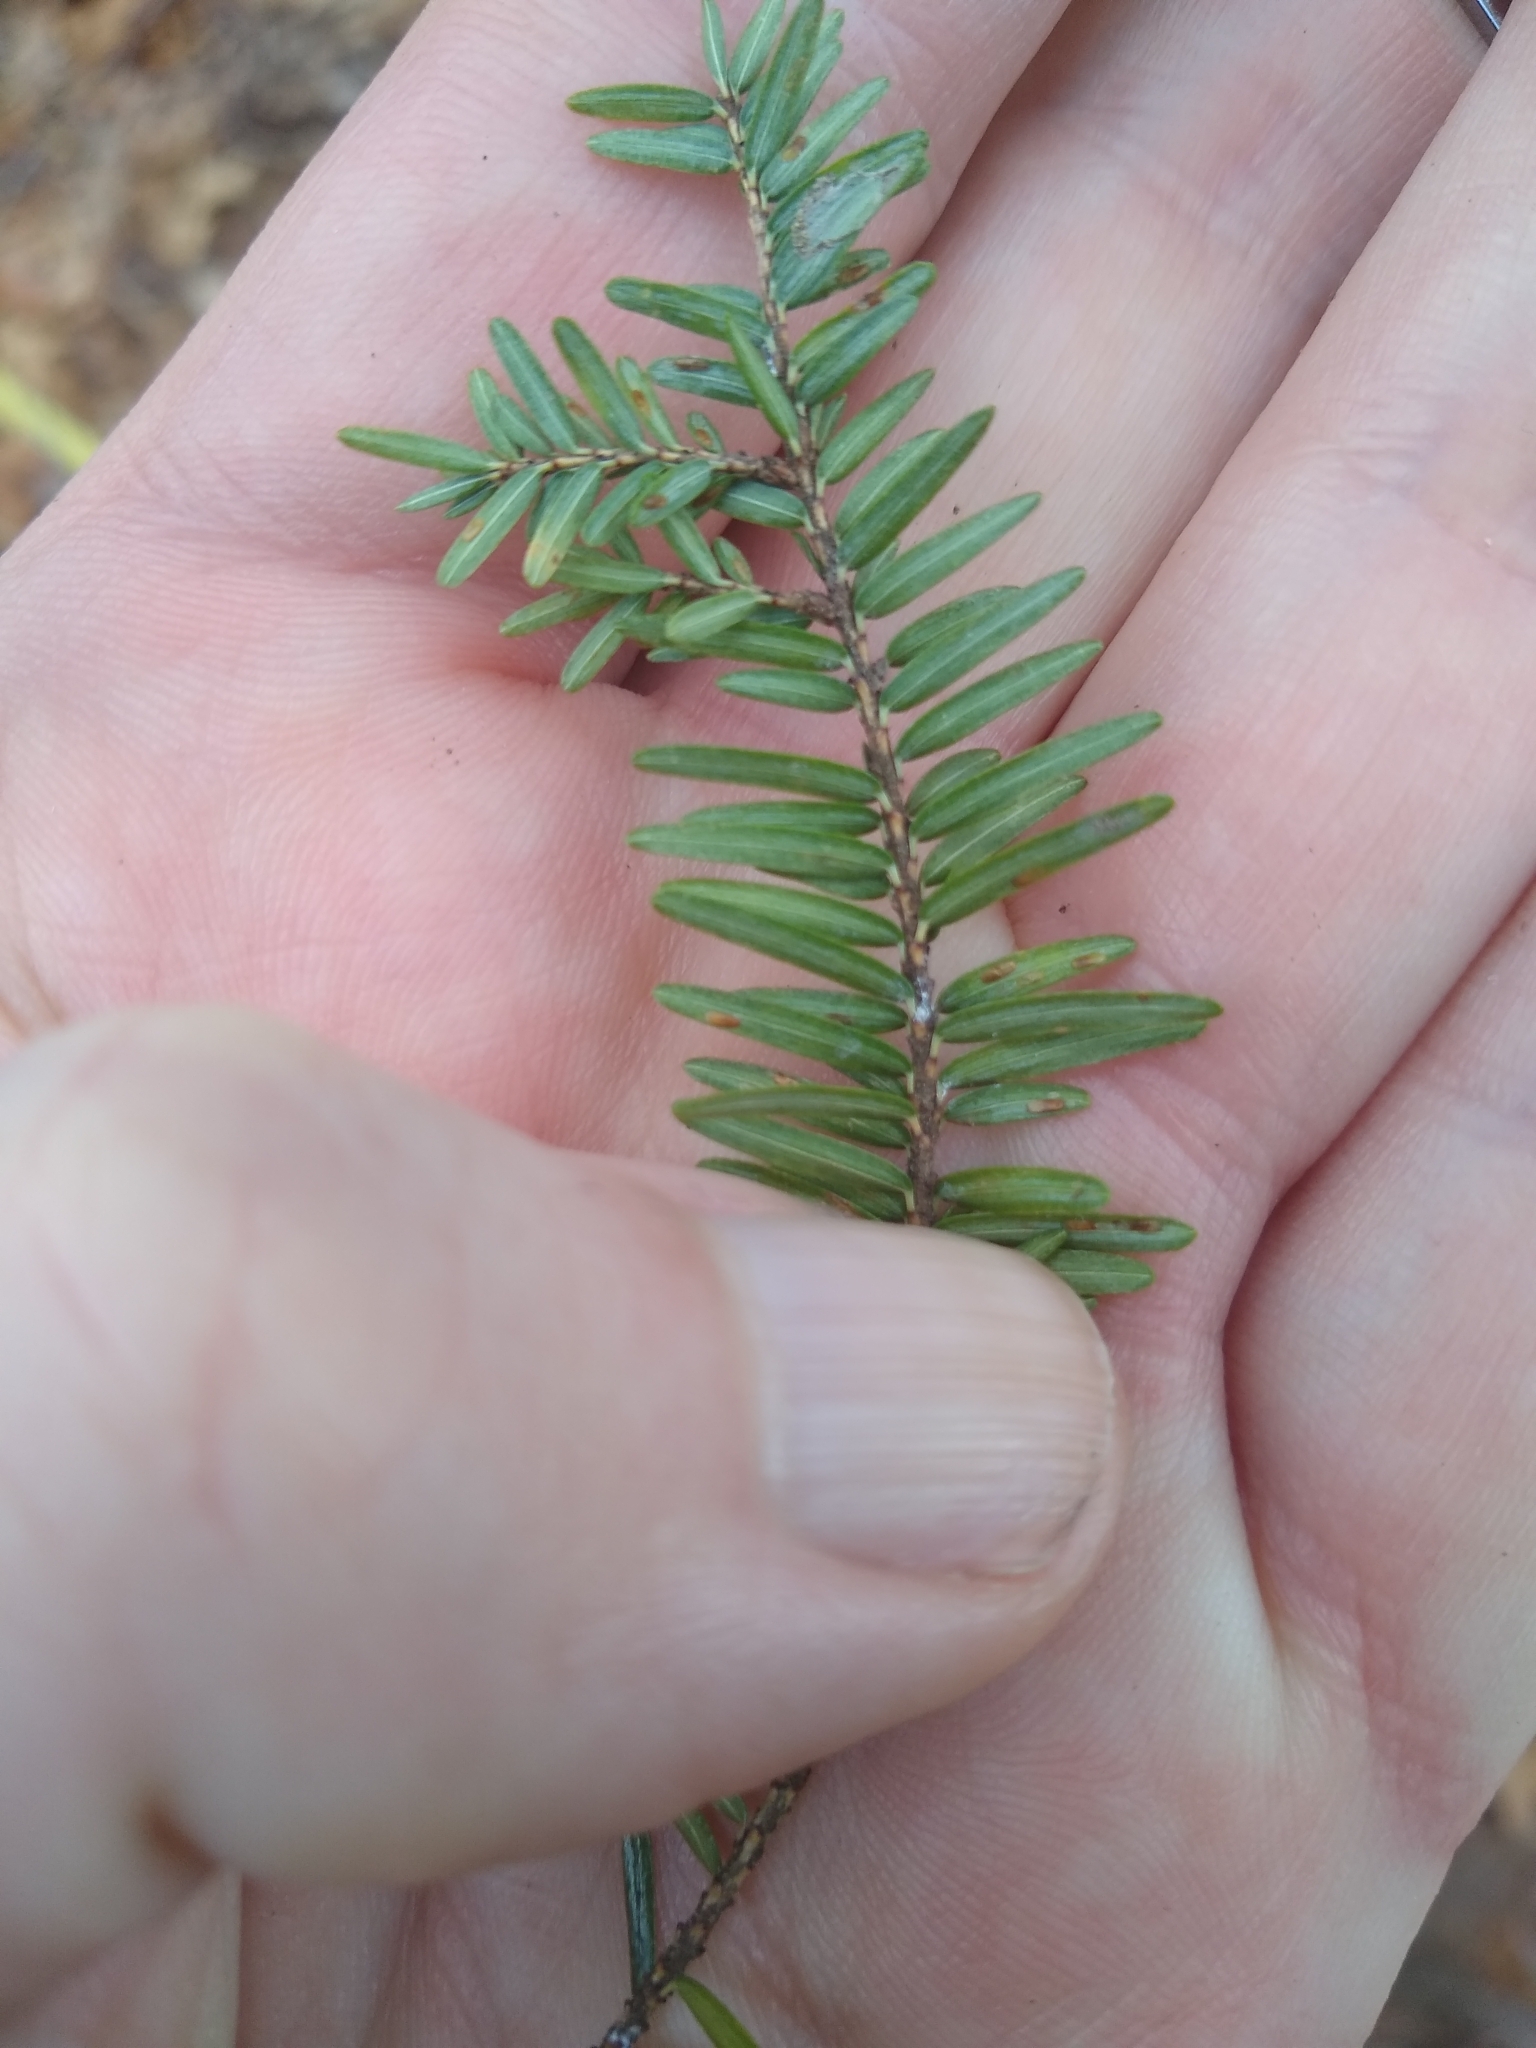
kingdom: Animalia
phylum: Arthropoda
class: Insecta
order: Hemiptera
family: Diaspididae
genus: Fiorinia
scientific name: Fiorinia externa
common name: Elongate hemlock scale
